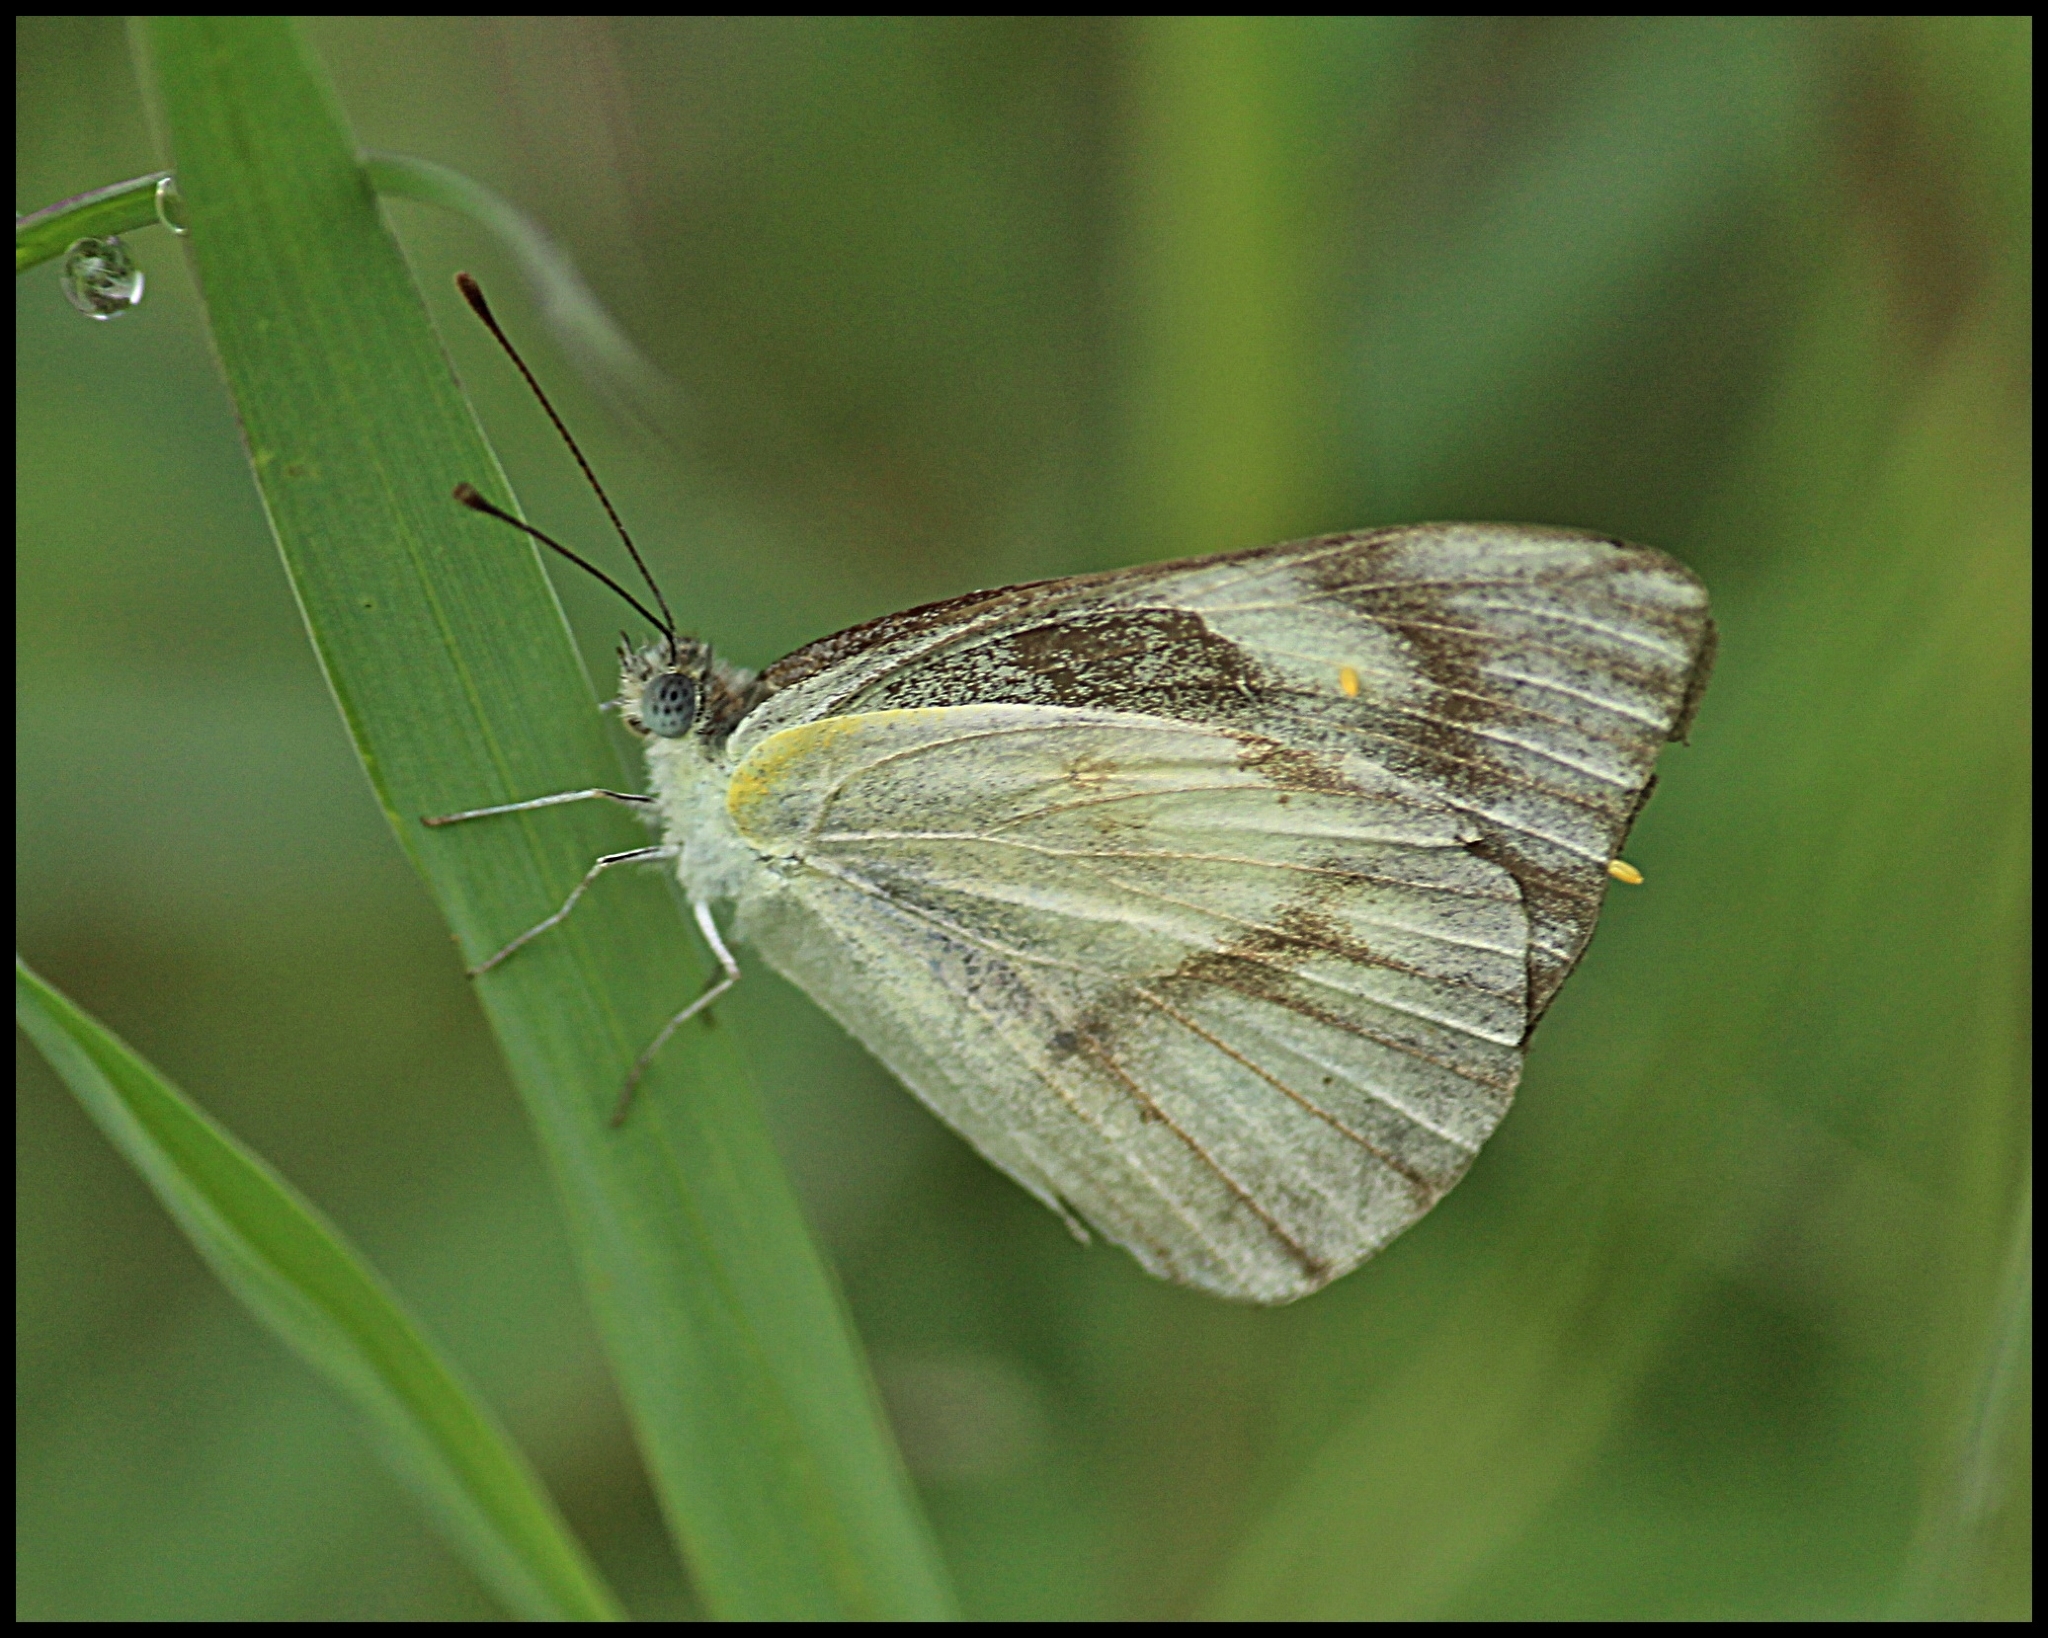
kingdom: Animalia
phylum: Arthropoda
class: Insecta
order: Lepidoptera
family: Pieridae
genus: Appias
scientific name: Appias libythea
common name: Striped albatross
